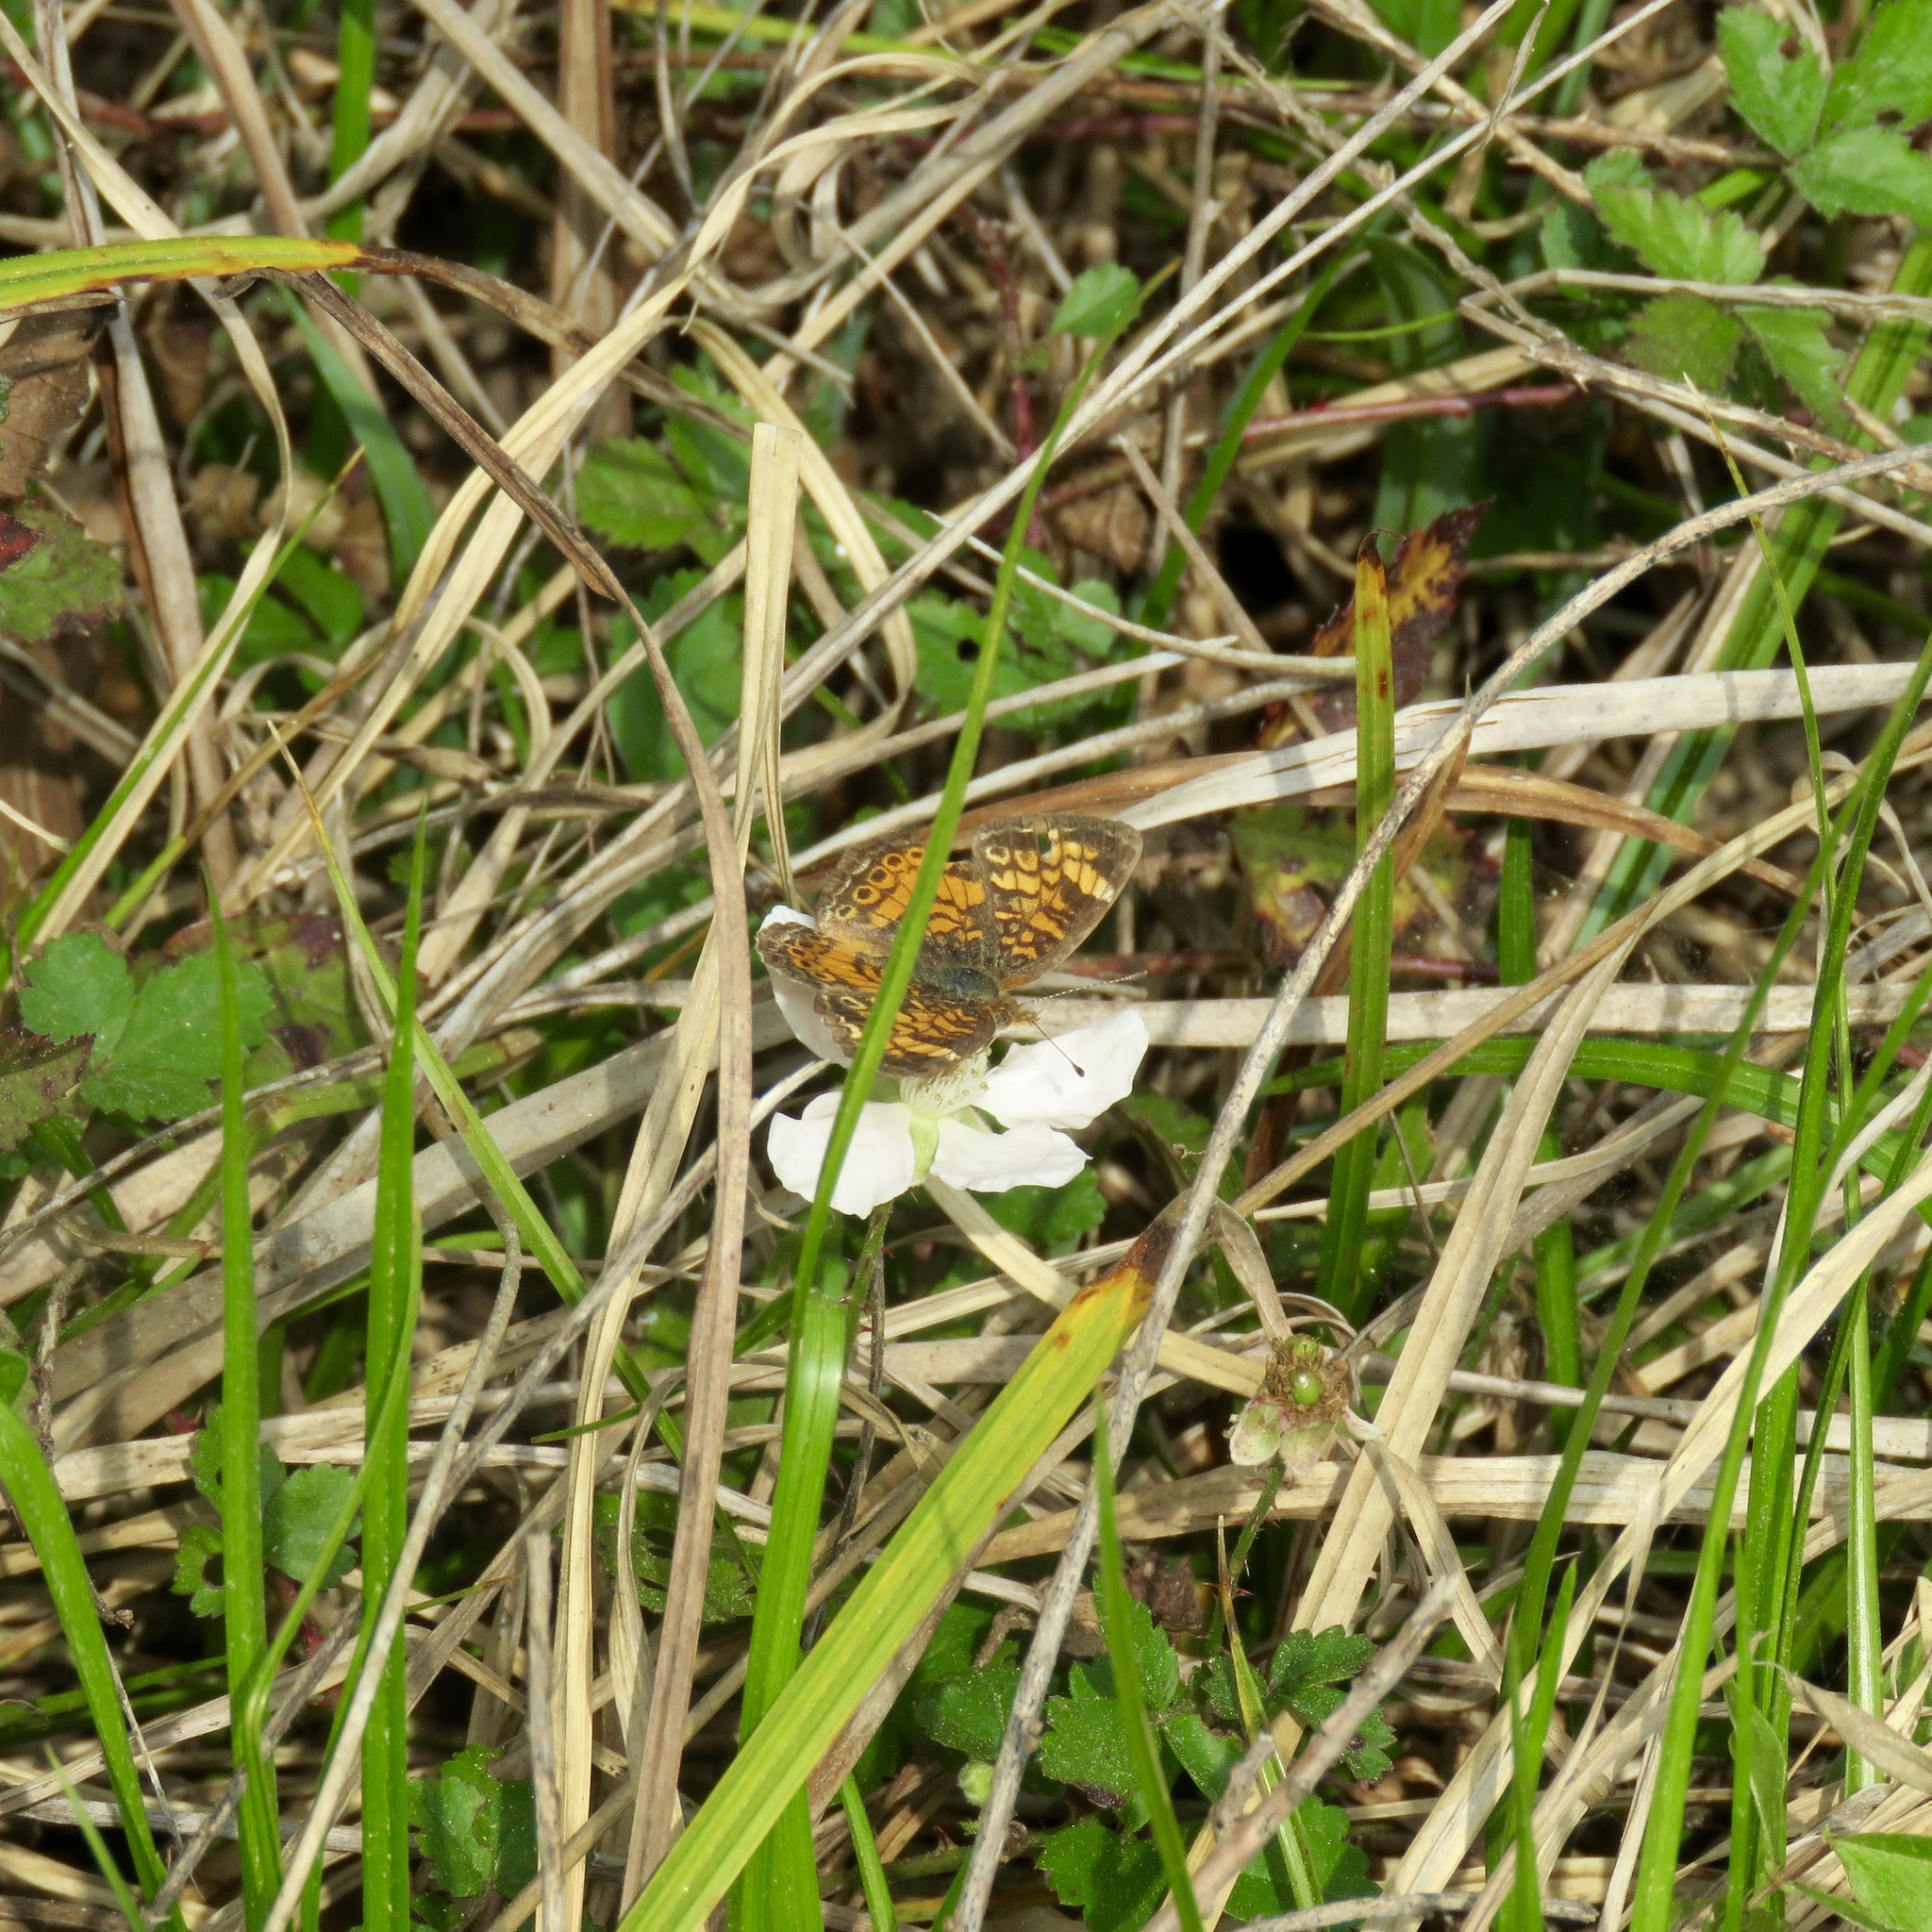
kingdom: Animalia
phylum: Arthropoda
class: Insecta
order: Lepidoptera
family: Nymphalidae
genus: Phyciodes
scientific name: Phyciodes tharos
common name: Pearl crescent
